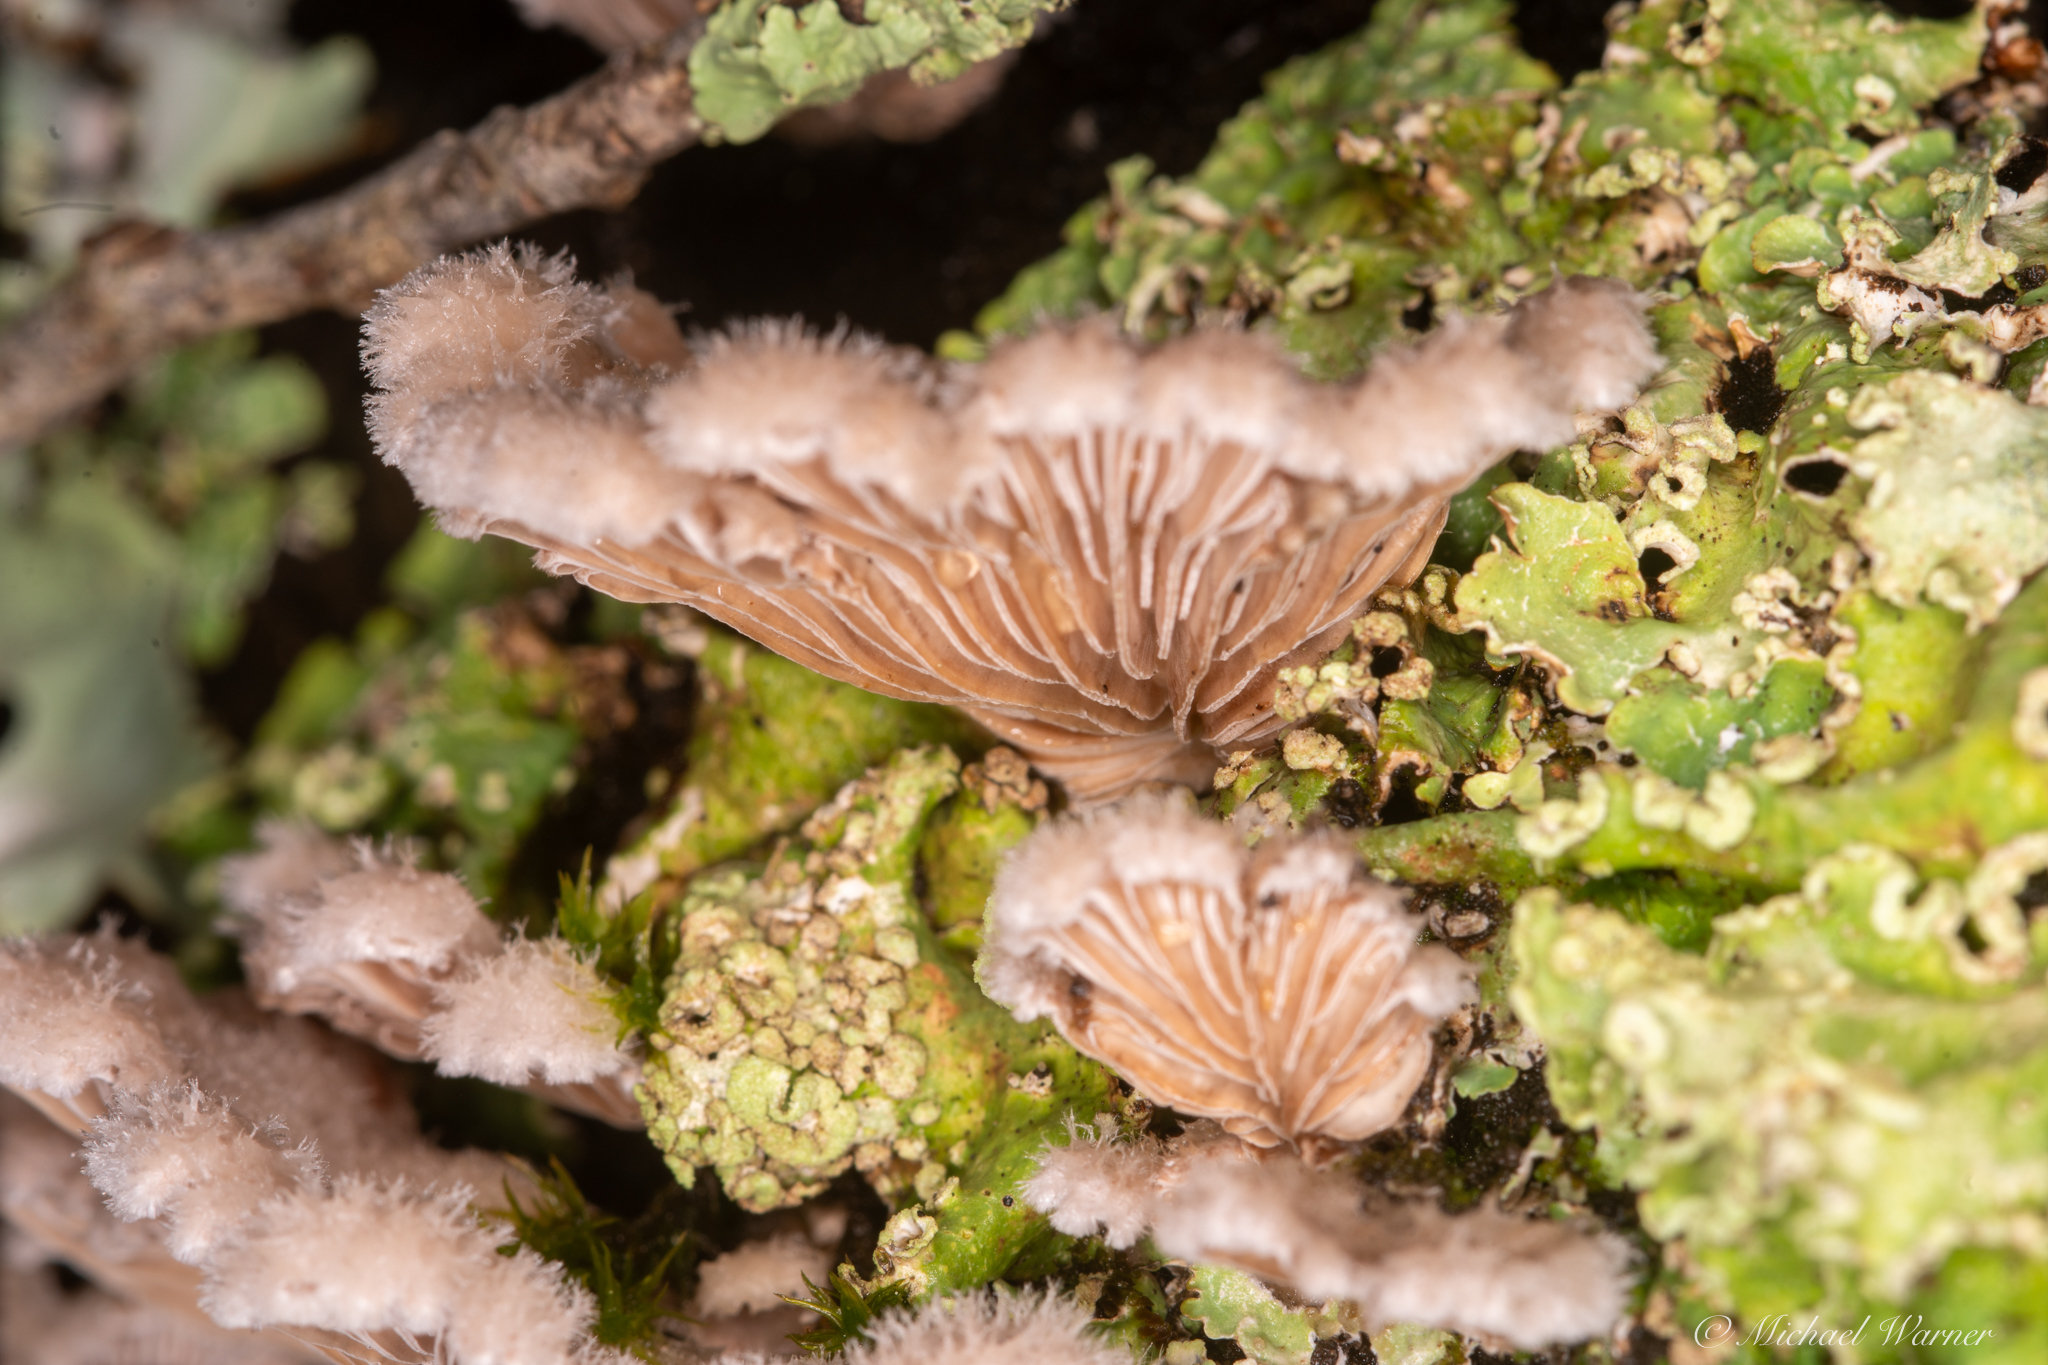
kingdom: Fungi
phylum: Basidiomycota
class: Agaricomycetes
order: Agaricales
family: Schizophyllaceae
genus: Schizophyllum
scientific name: Schizophyllum commune
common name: Common porecrust
